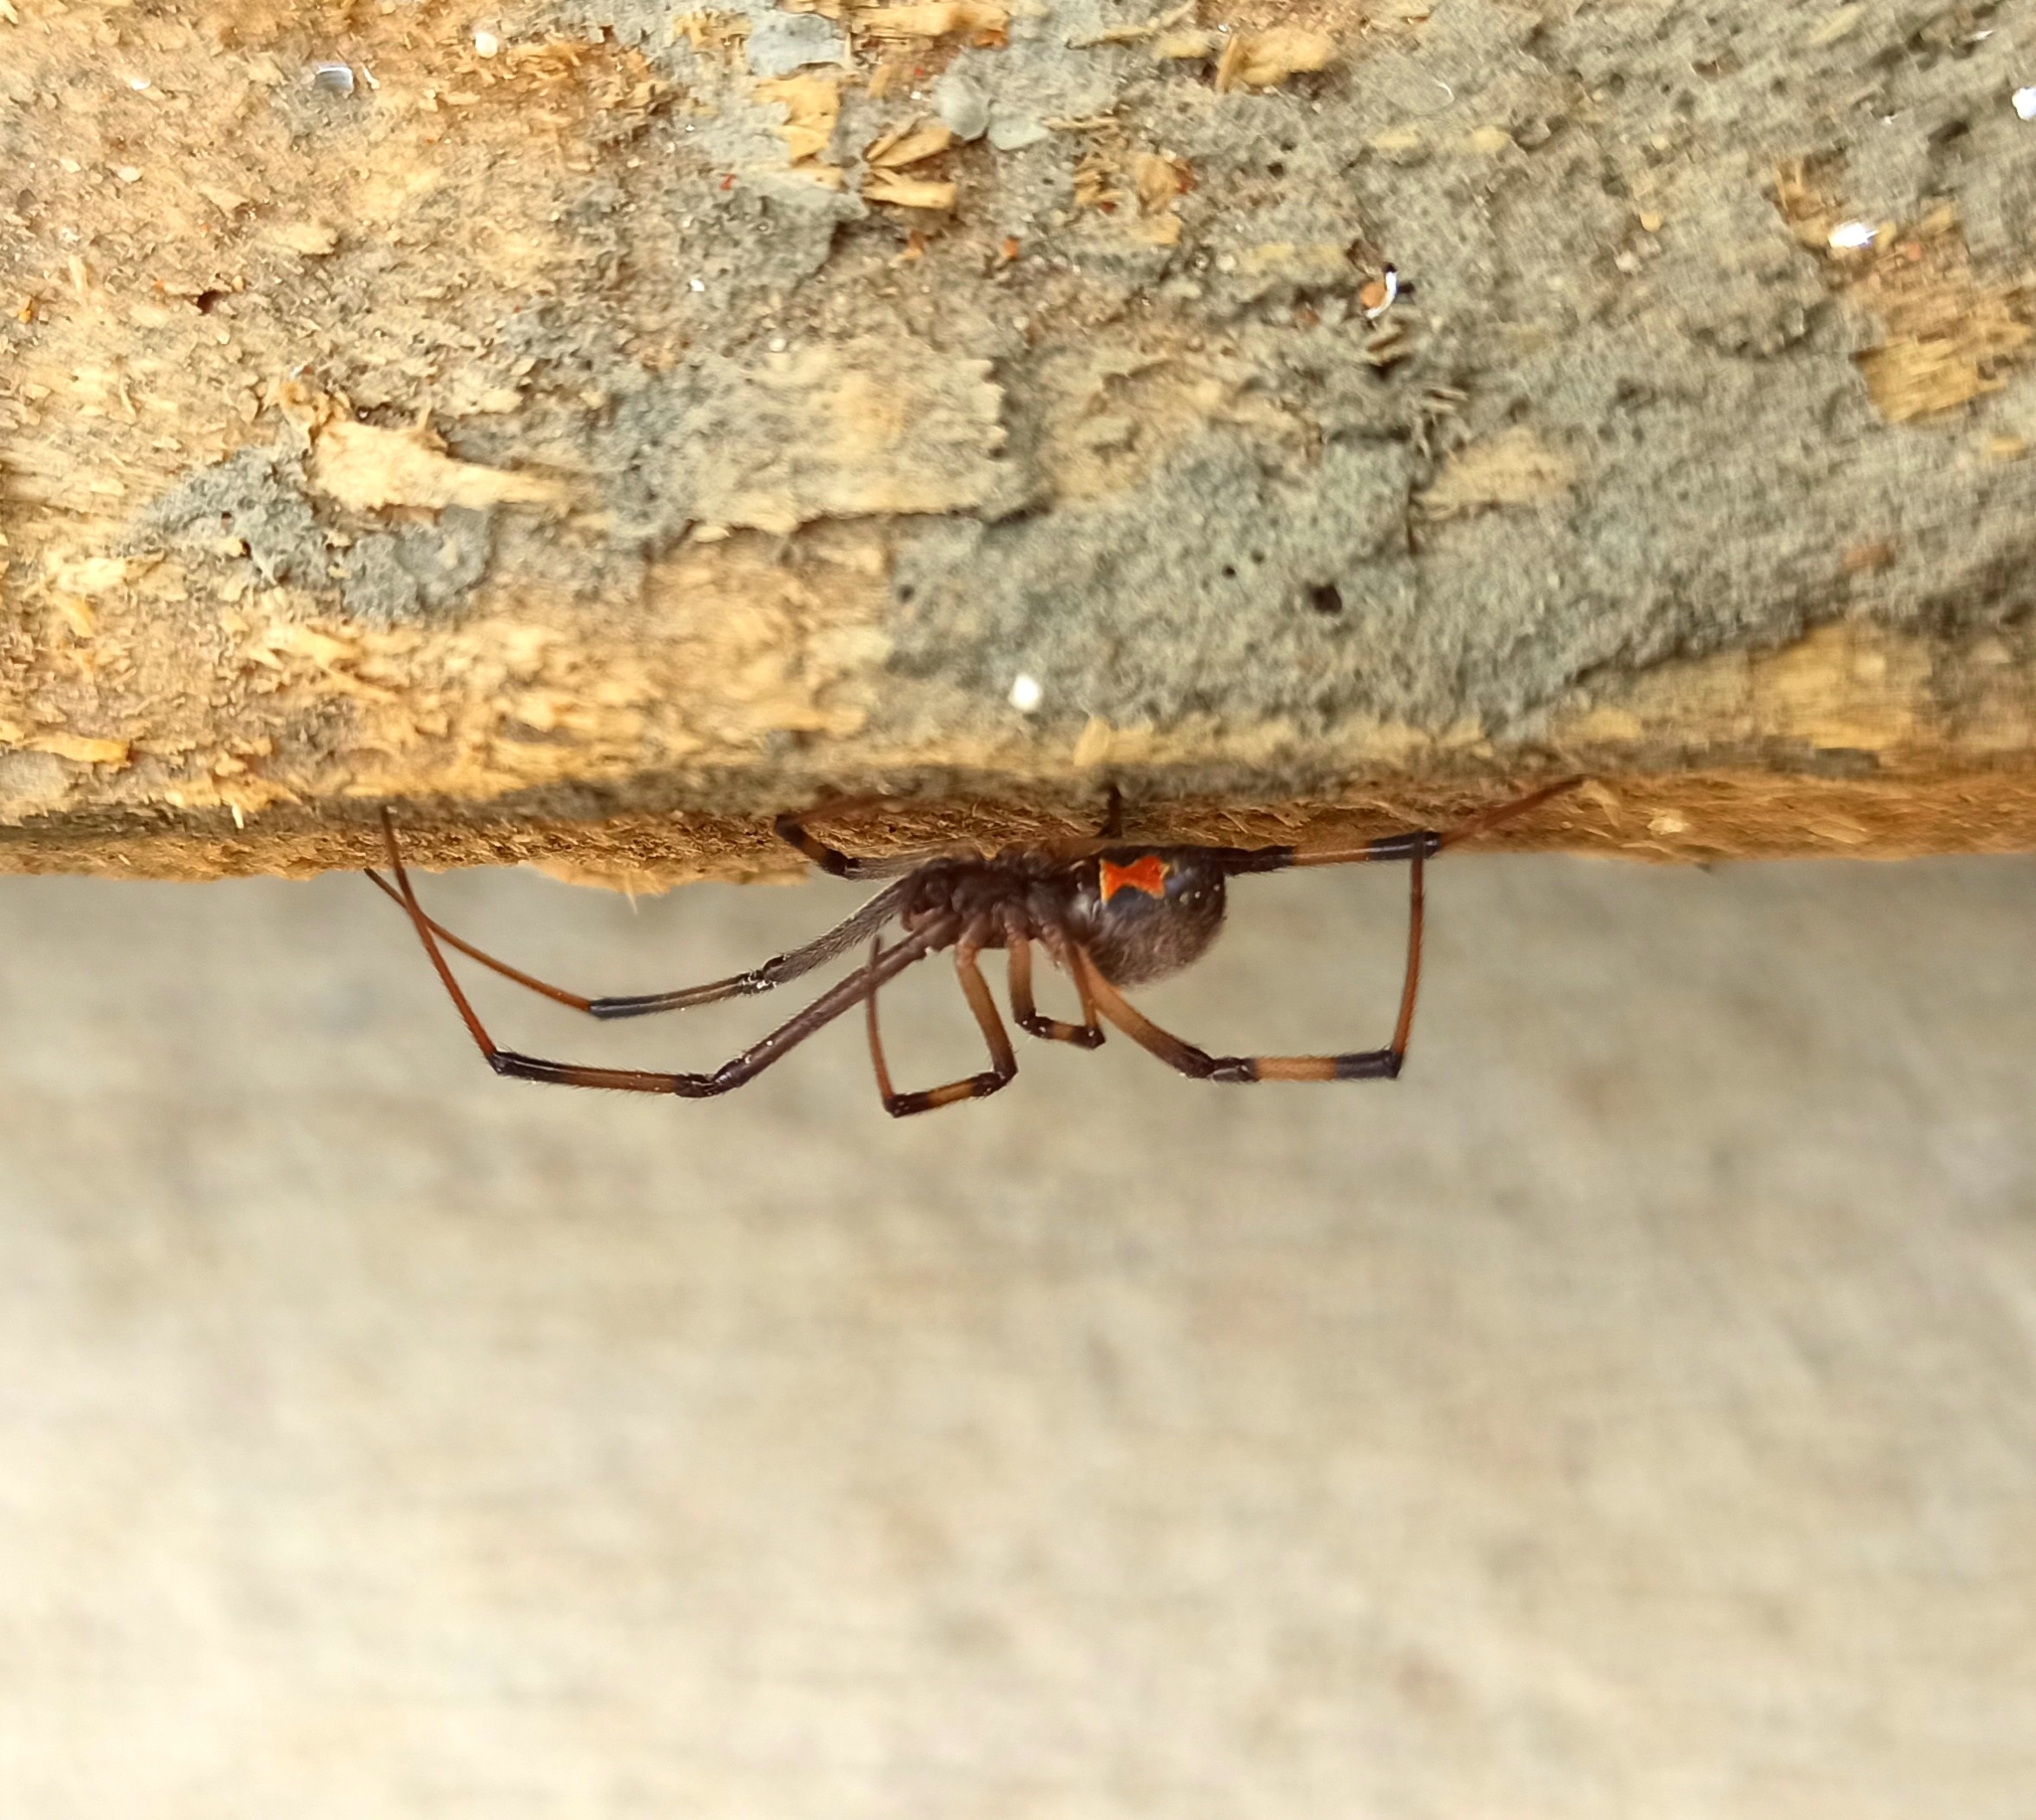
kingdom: Animalia
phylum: Arthropoda
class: Arachnida
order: Araneae
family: Theridiidae
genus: Latrodectus
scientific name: Latrodectus geometricus
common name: Brown widow spider
